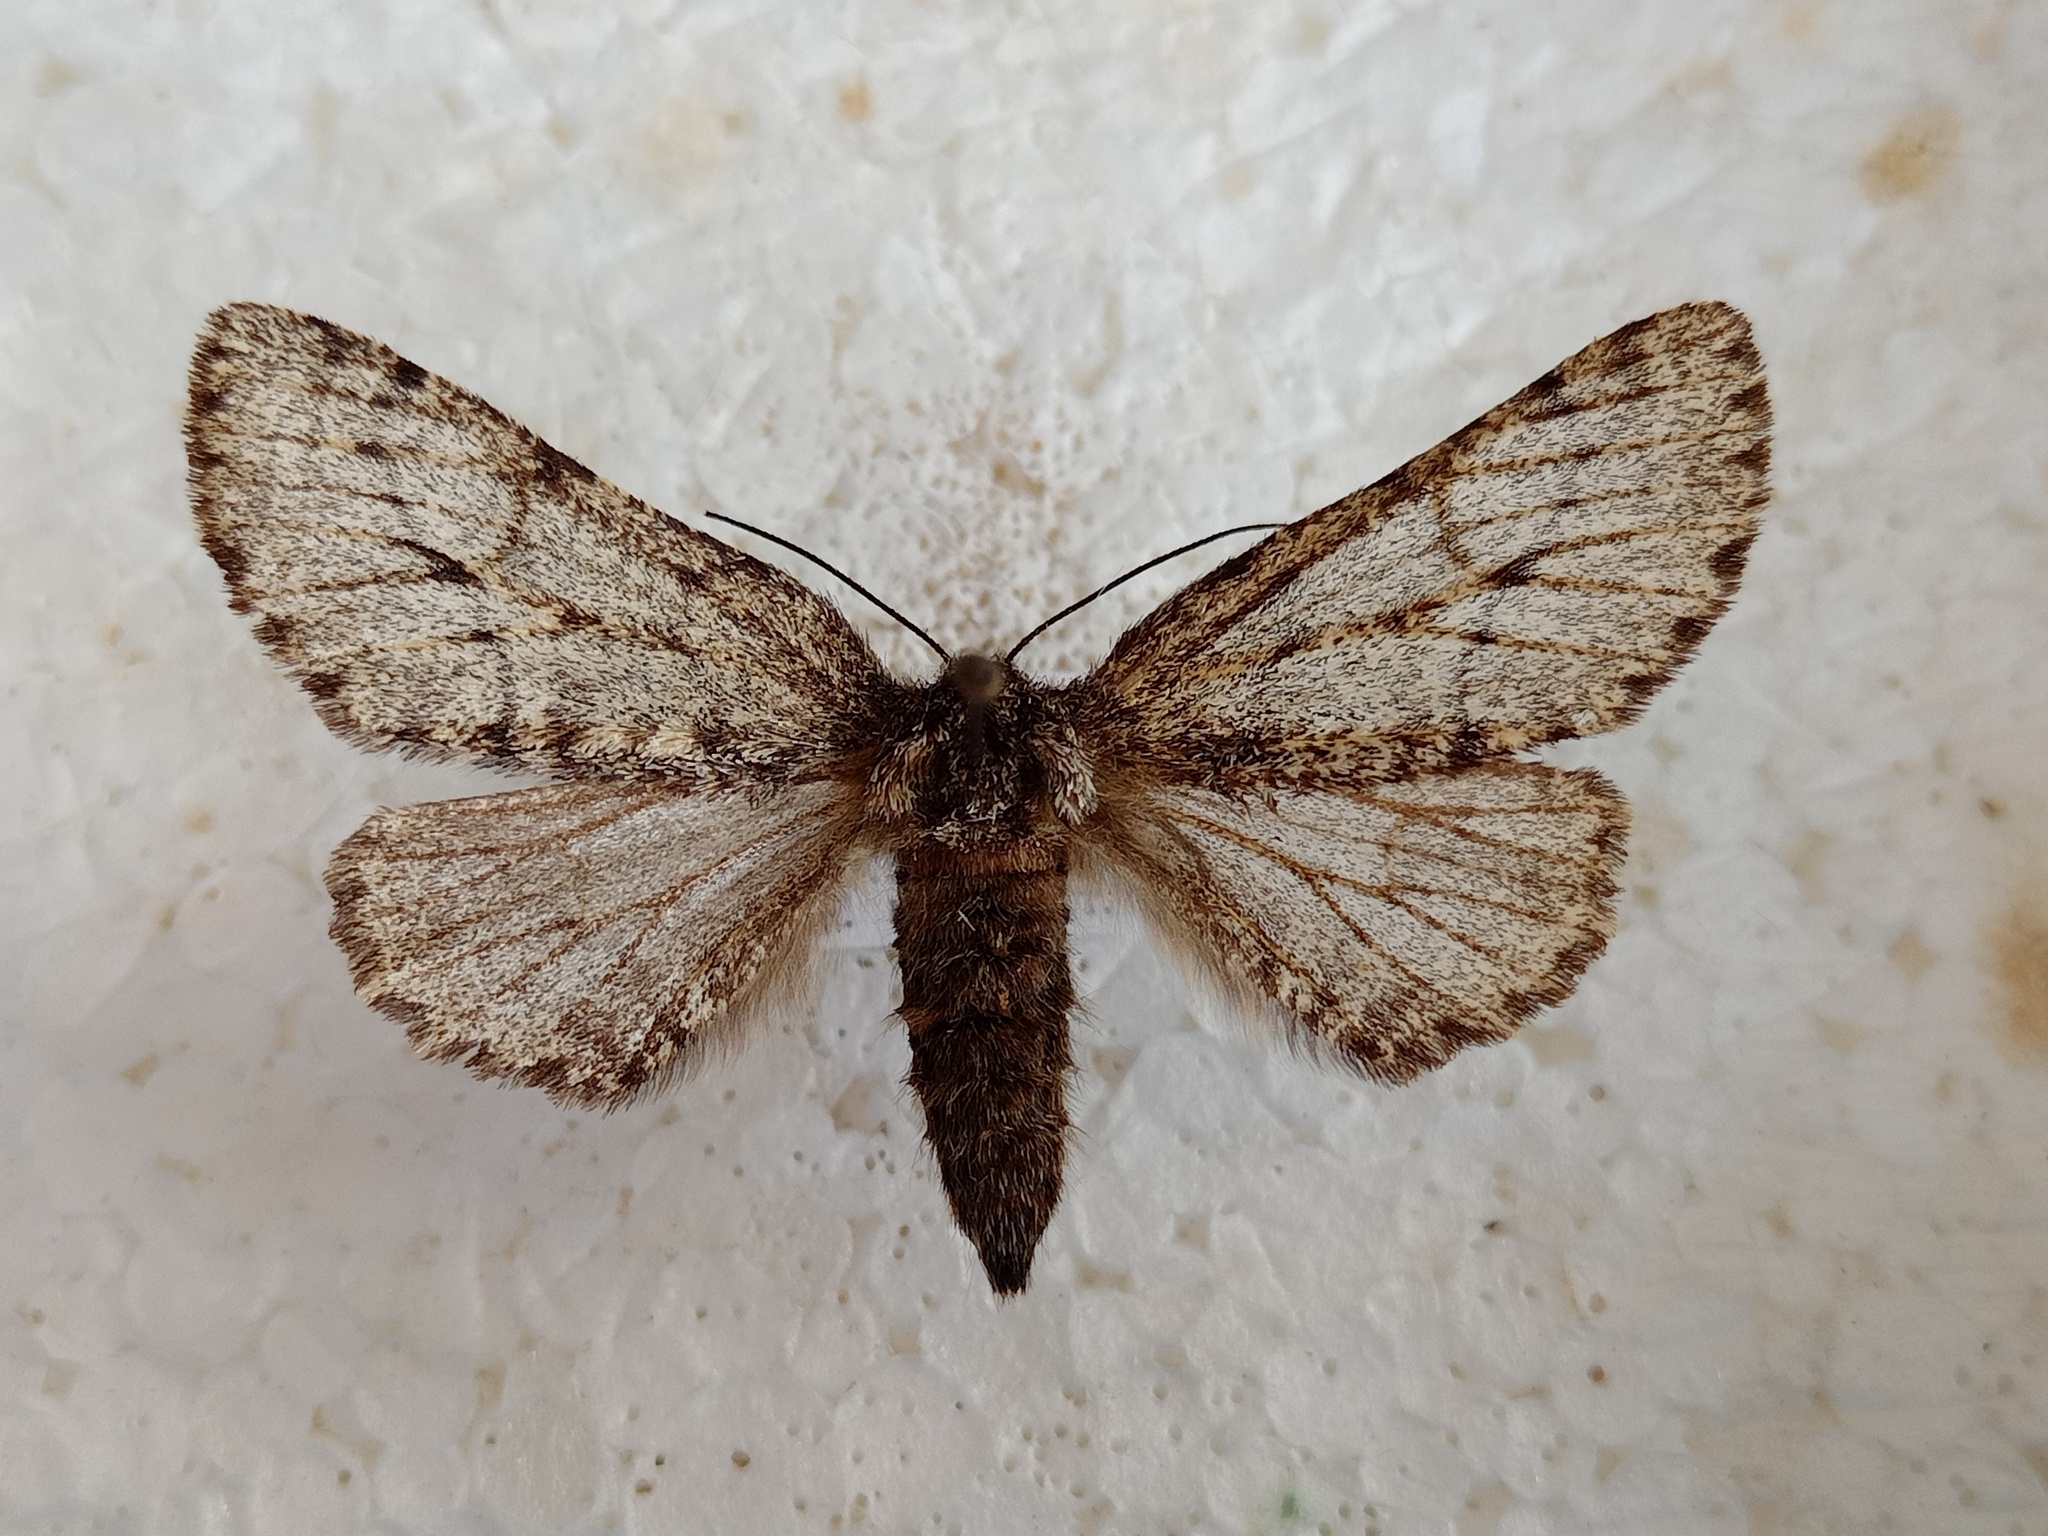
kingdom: Animalia
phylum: Arthropoda
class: Insecta
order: Lepidoptera
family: Geometridae
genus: Lycia
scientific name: Lycia hirtaria
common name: Brindled beauty
